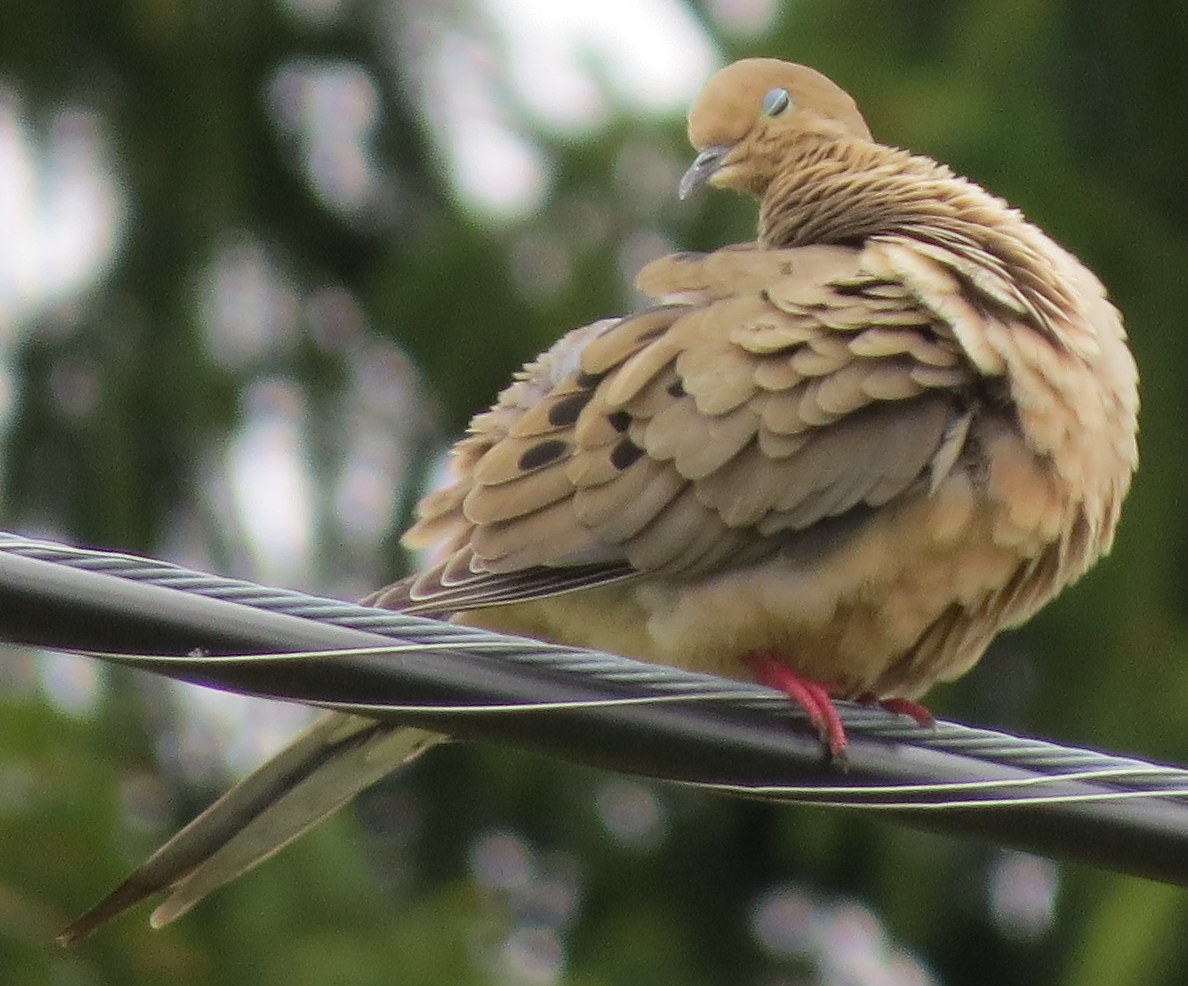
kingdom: Animalia
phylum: Chordata
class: Aves
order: Columbiformes
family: Columbidae
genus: Zenaida
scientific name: Zenaida macroura
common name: Mourning dove
